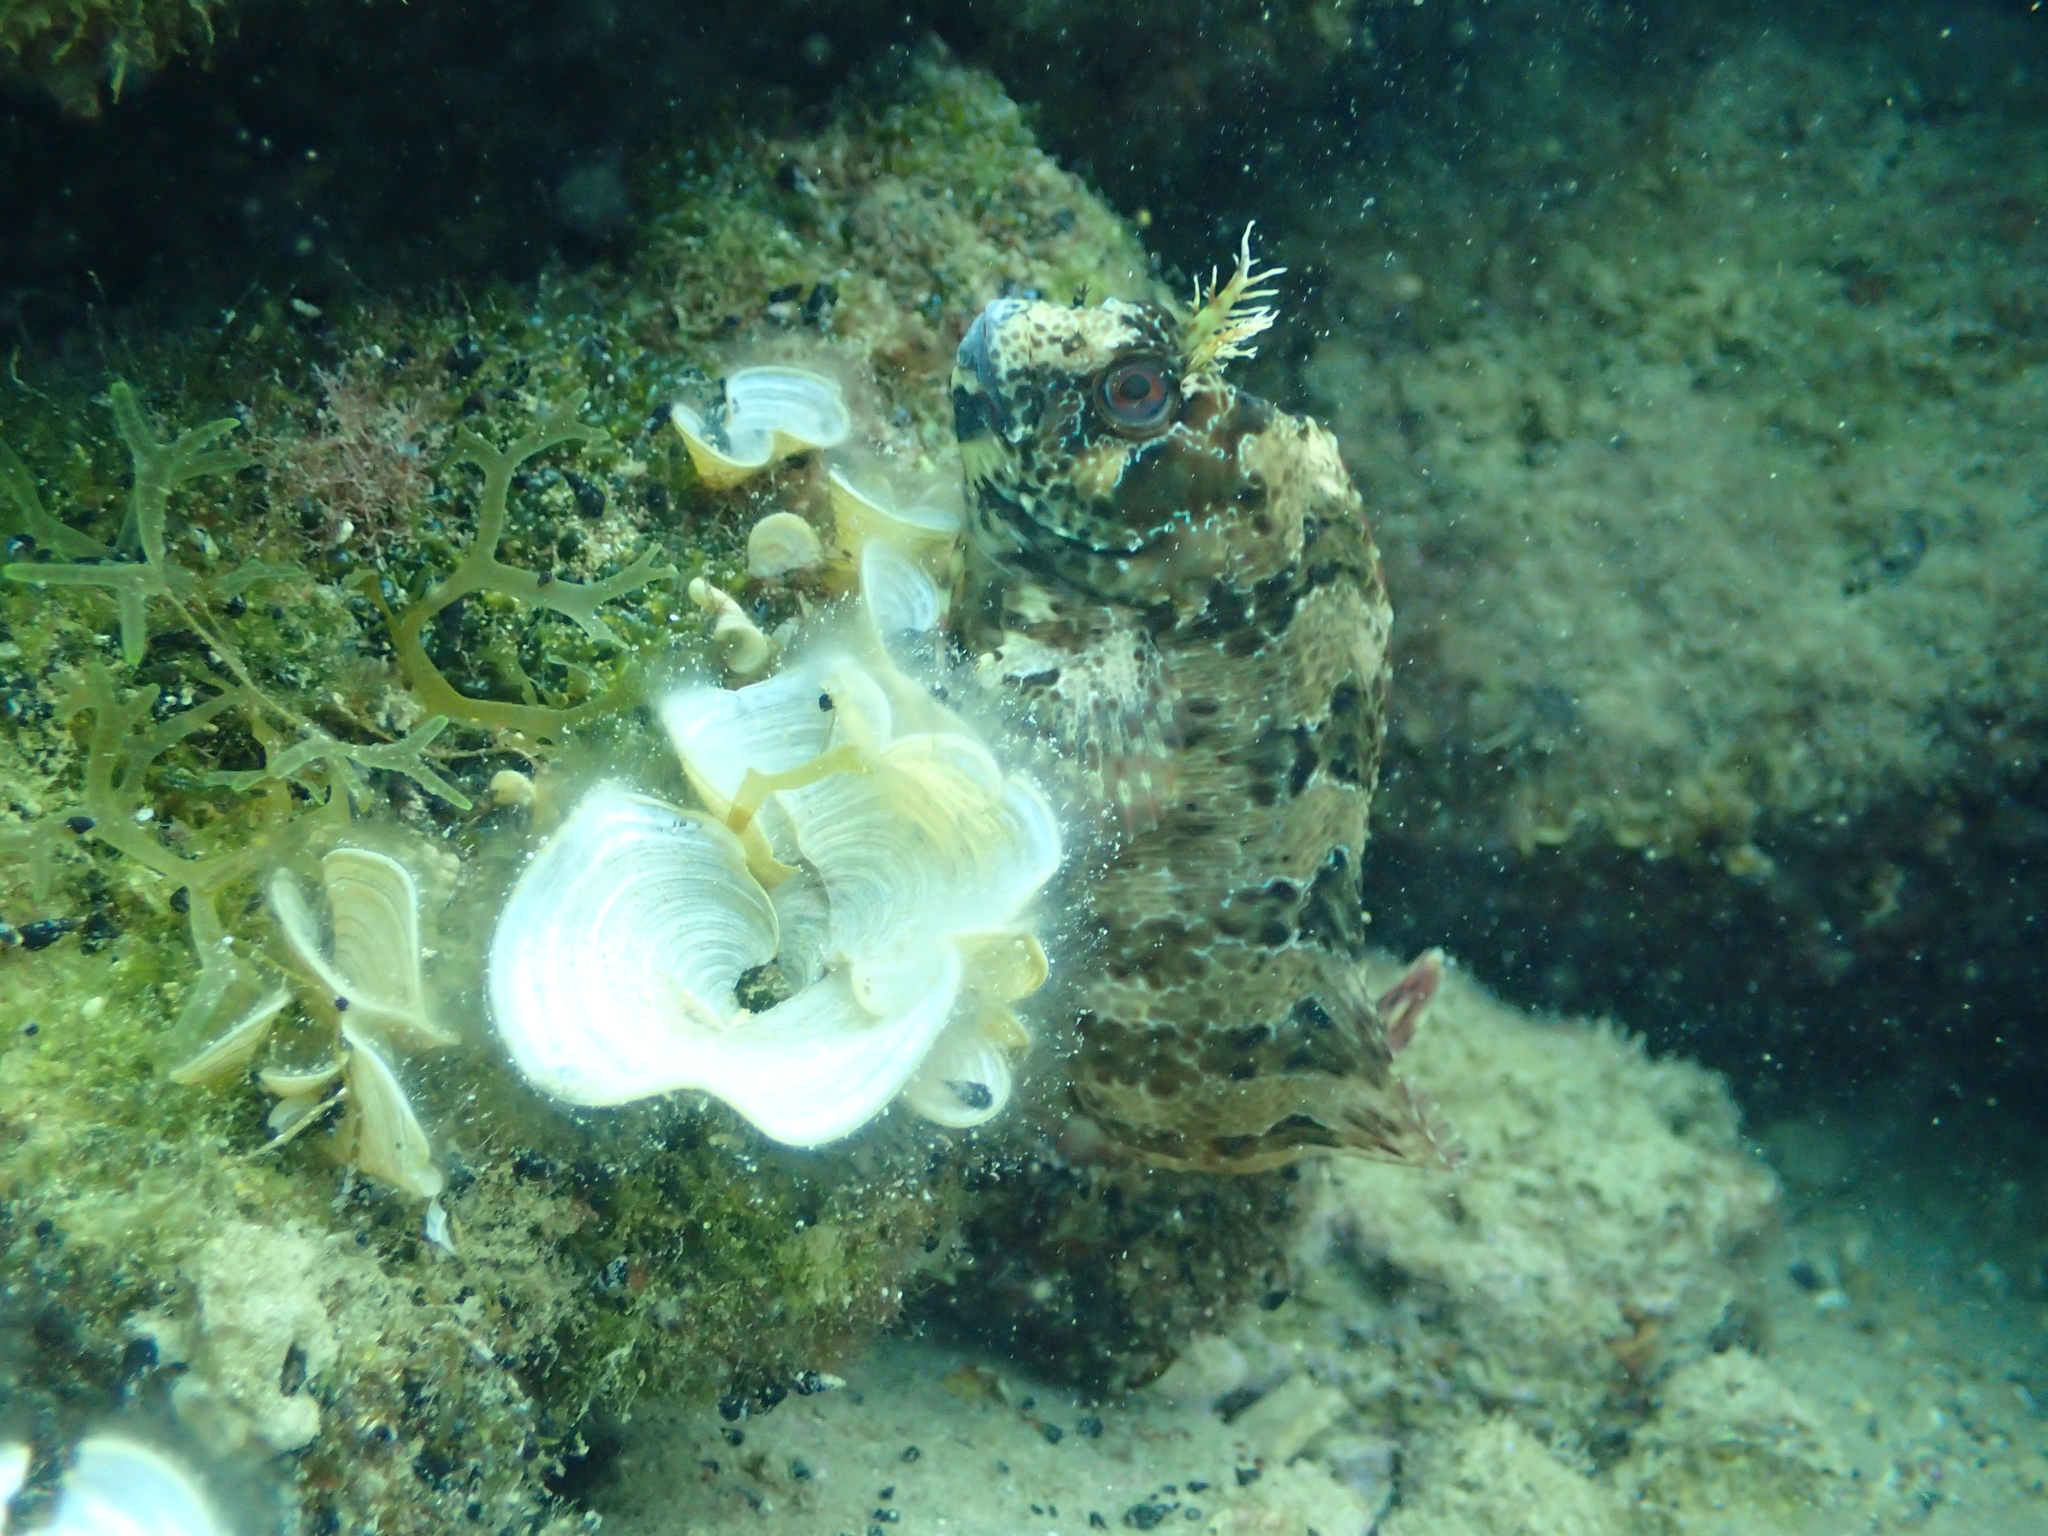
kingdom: Animalia
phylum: Chordata
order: Perciformes
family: Blenniidae
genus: Parablennius
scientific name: Parablennius gattorugine
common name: Tompot blenny
